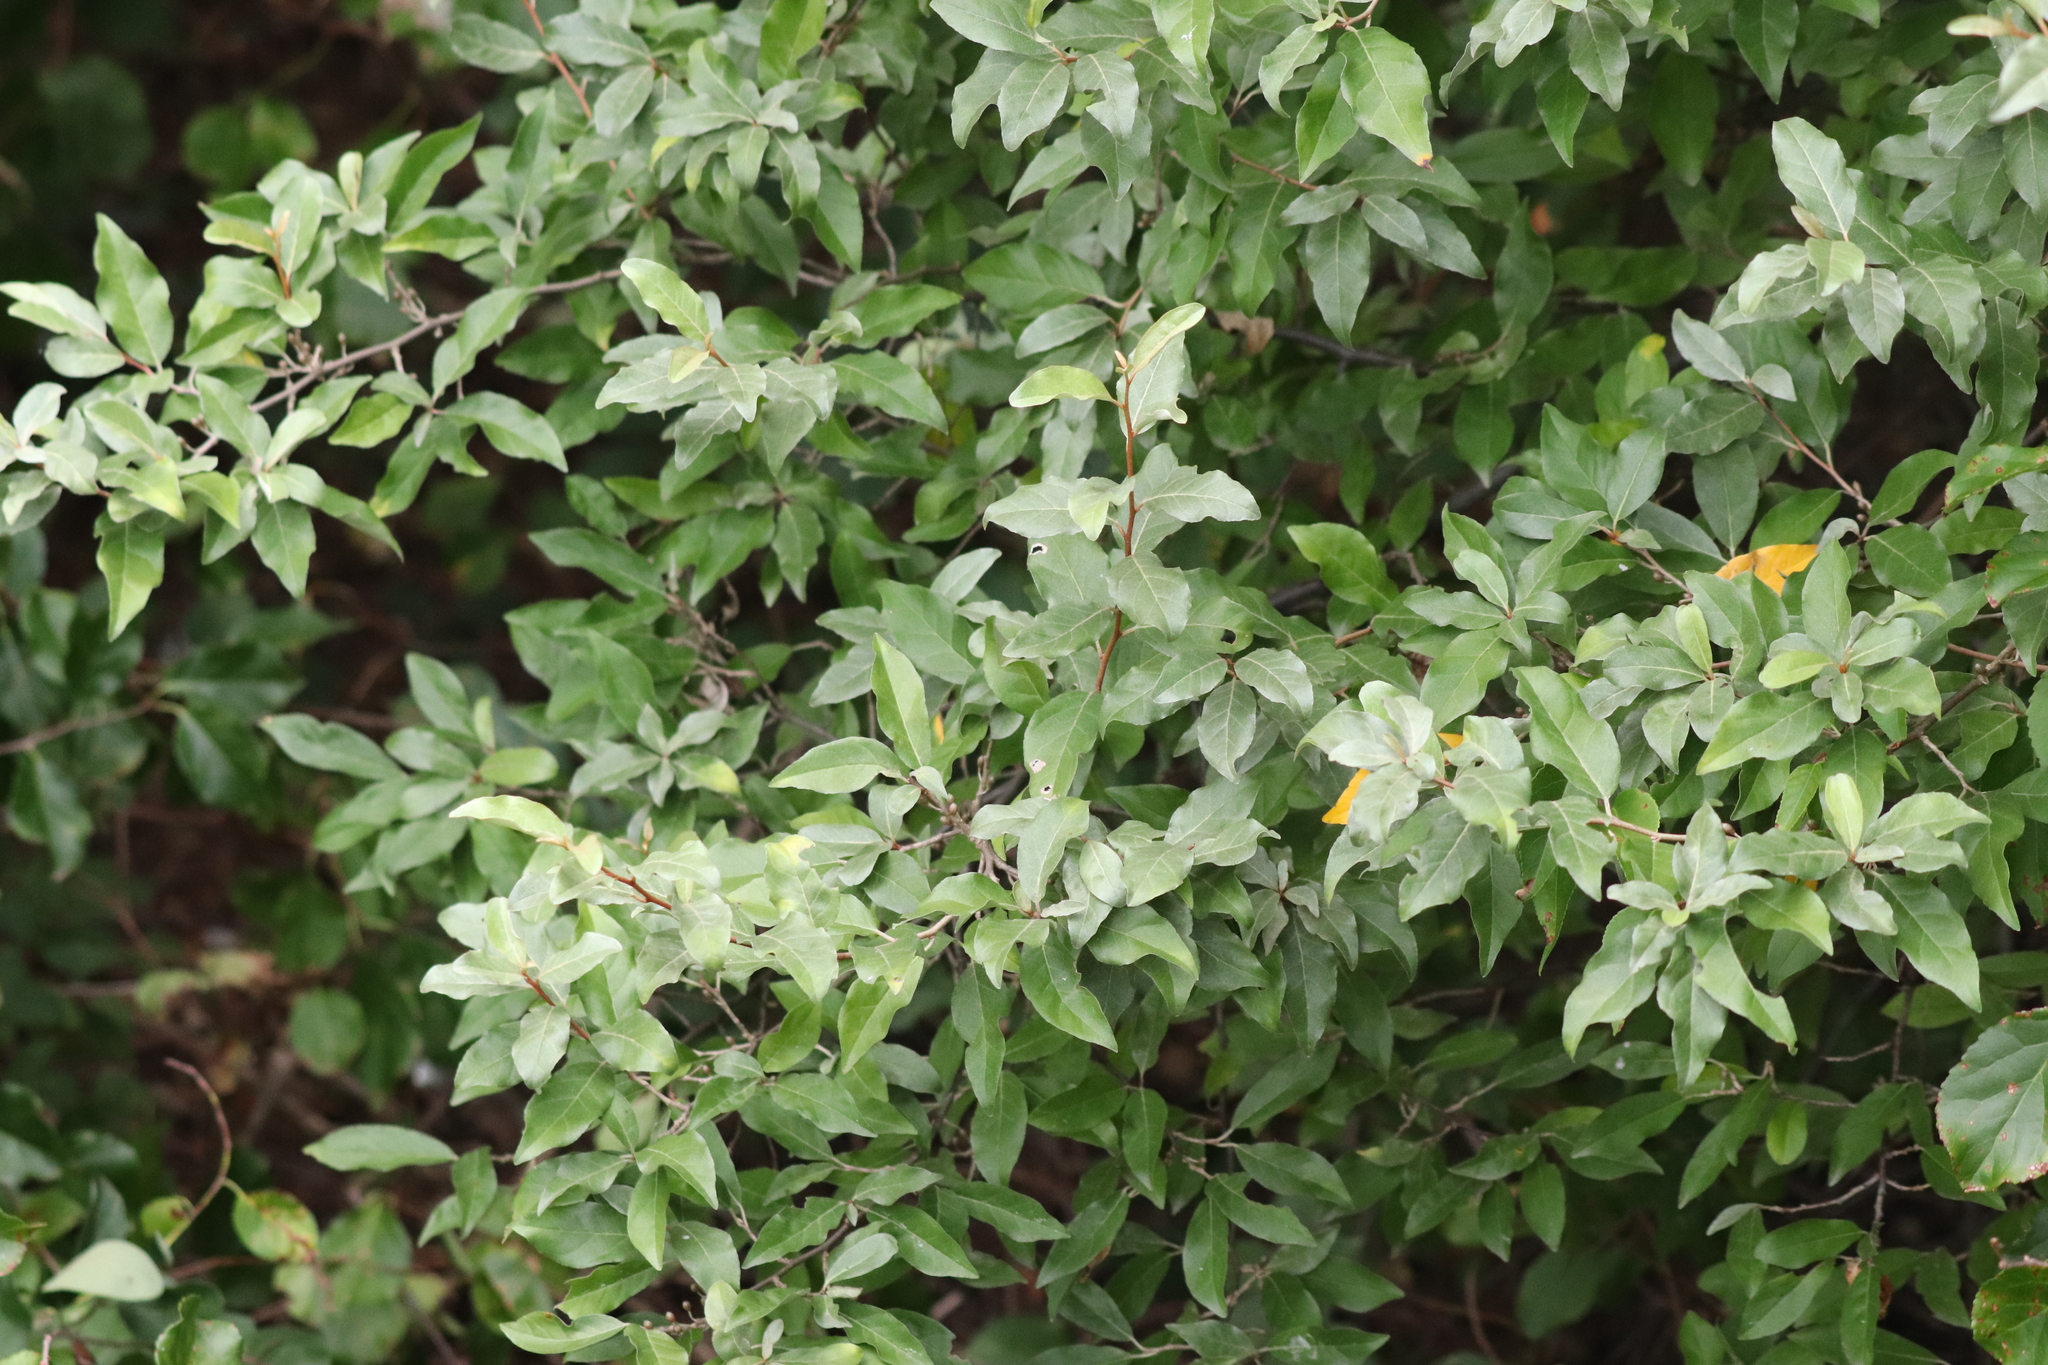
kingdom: Plantae
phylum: Tracheophyta
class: Magnoliopsida
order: Rosales
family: Elaeagnaceae
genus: Elaeagnus
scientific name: Elaeagnus umbellata
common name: Autumn olive
